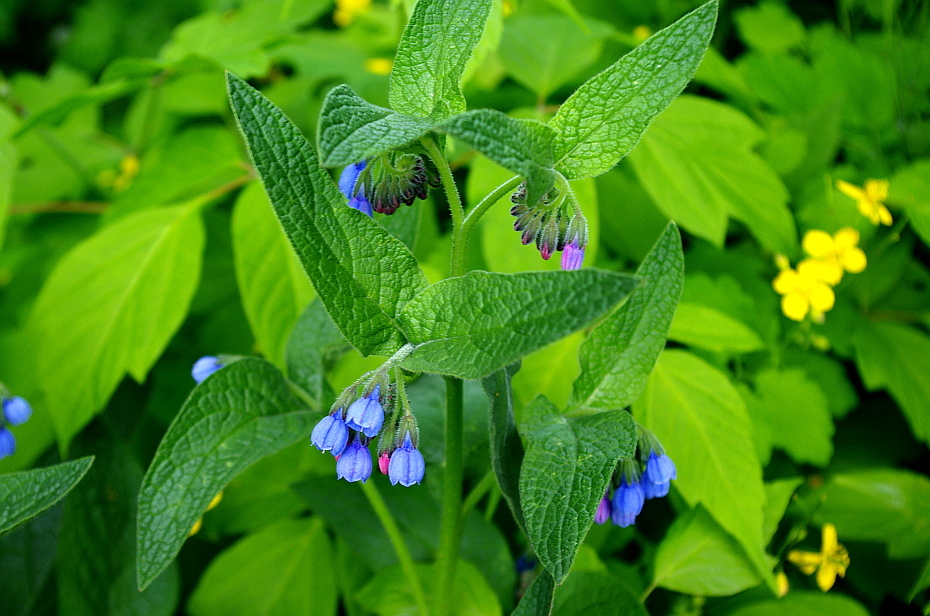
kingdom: Plantae
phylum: Tracheophyta
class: Magnoliopsida
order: Boraginales
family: Boraginaceae
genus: Symphytum
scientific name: Symphytum caucasicum
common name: Caucasian comfrey
